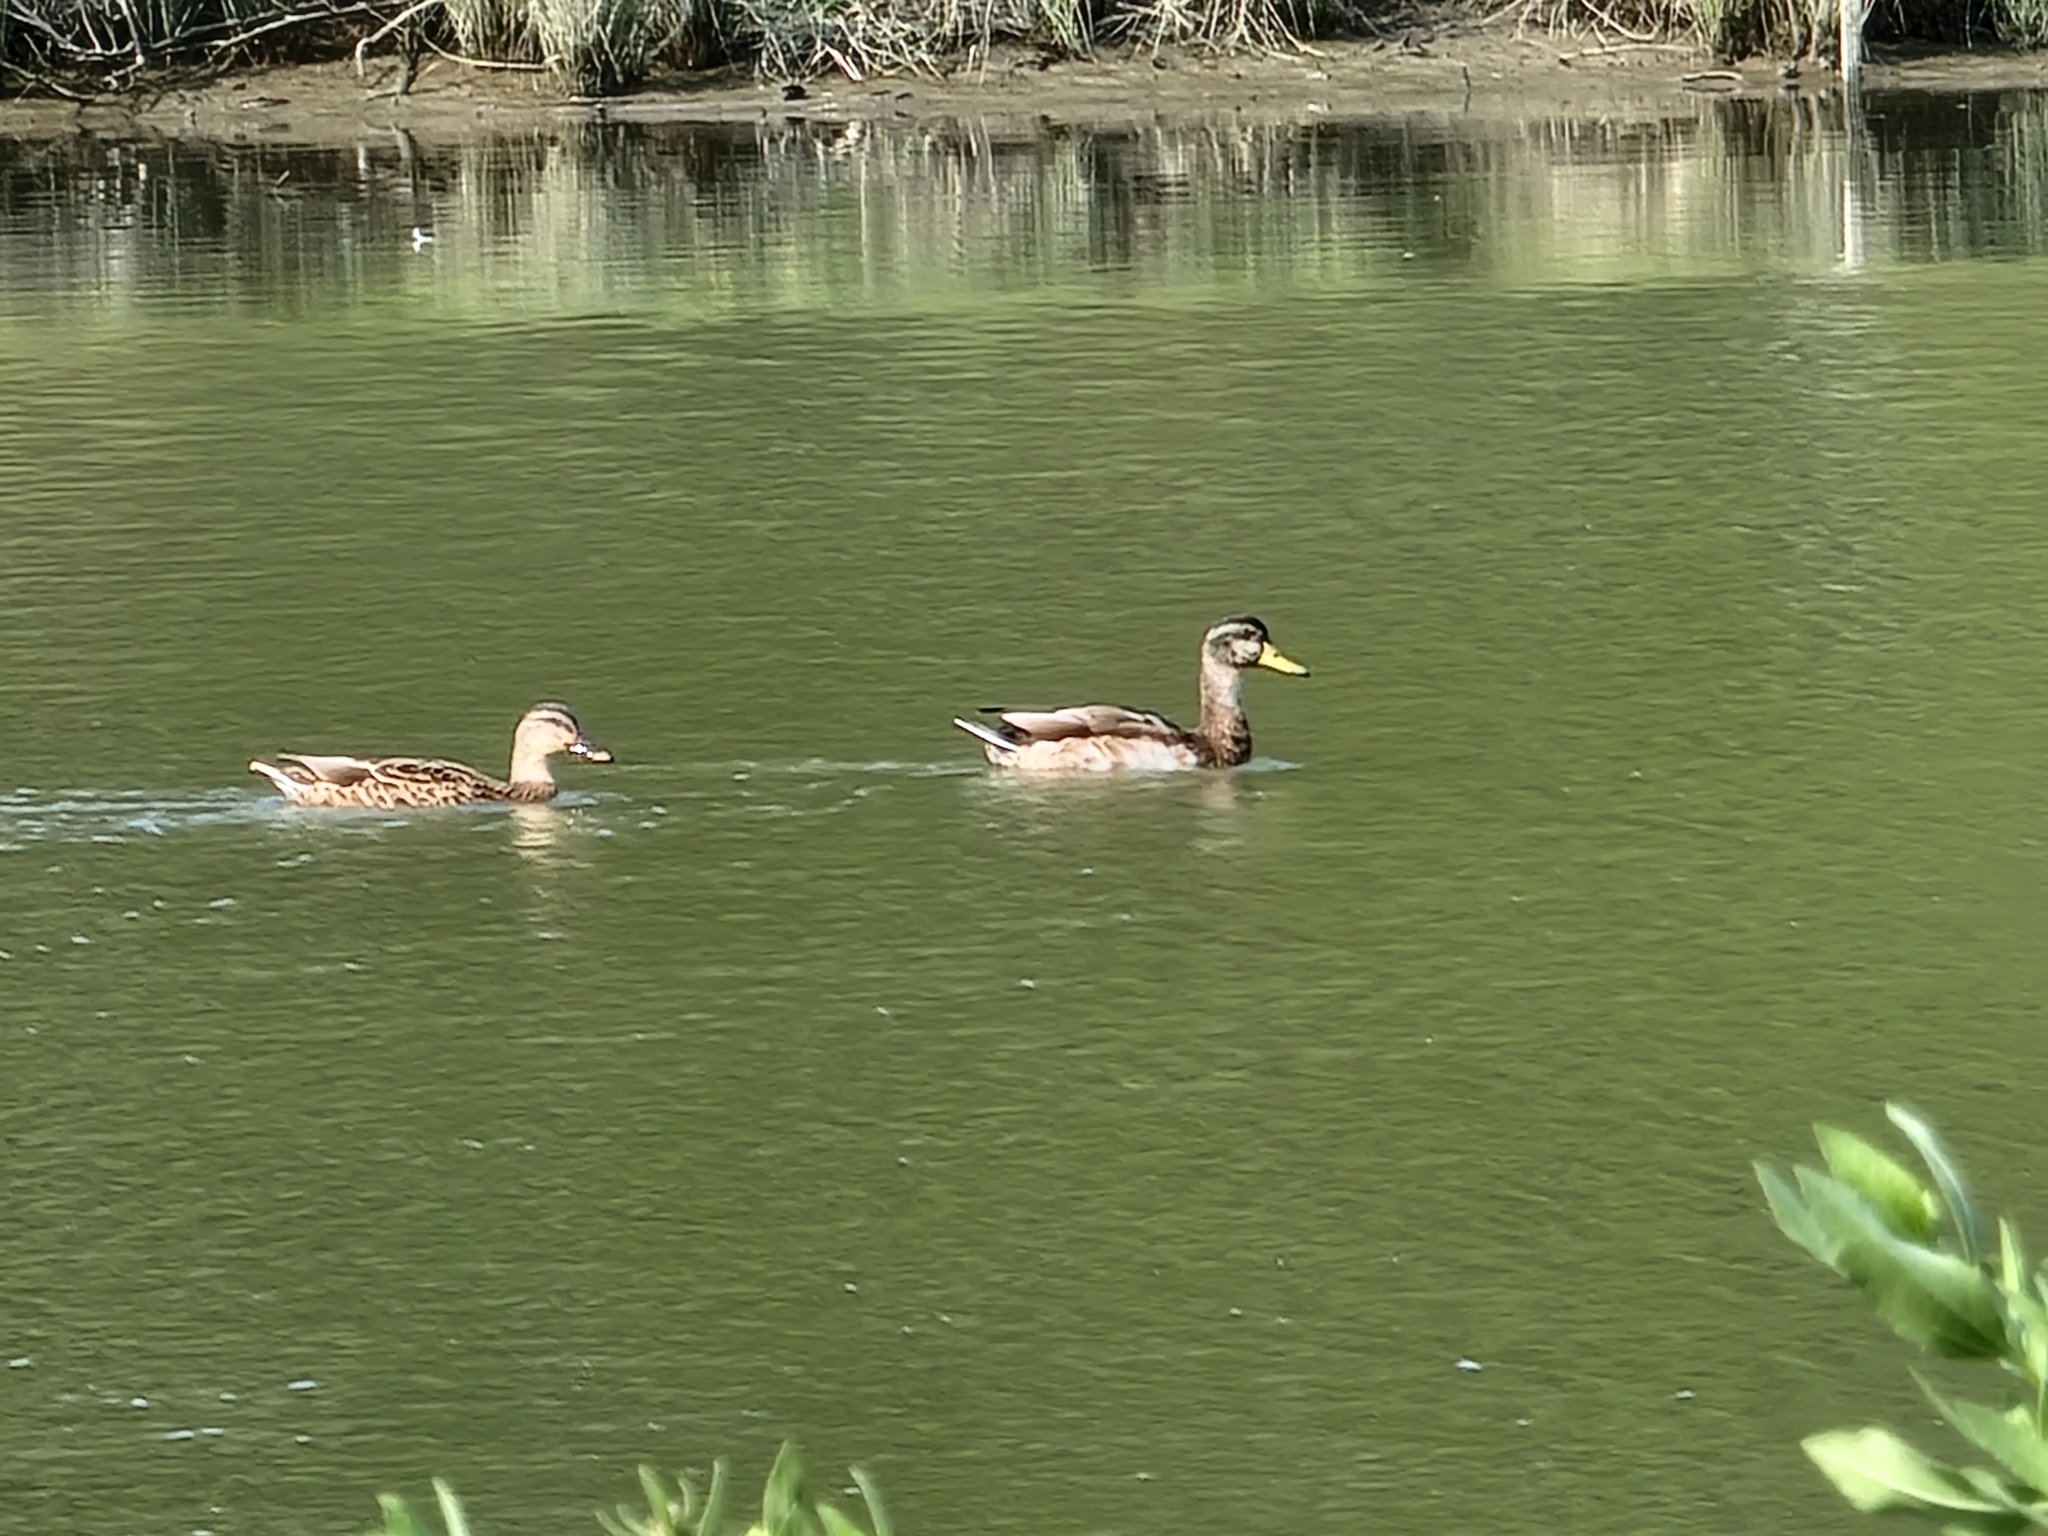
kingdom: Animalia
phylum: Chordata
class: Aves
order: Anseriformes
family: Anatidae
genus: Anas
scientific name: Anas platyrhynchos
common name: Mallard
